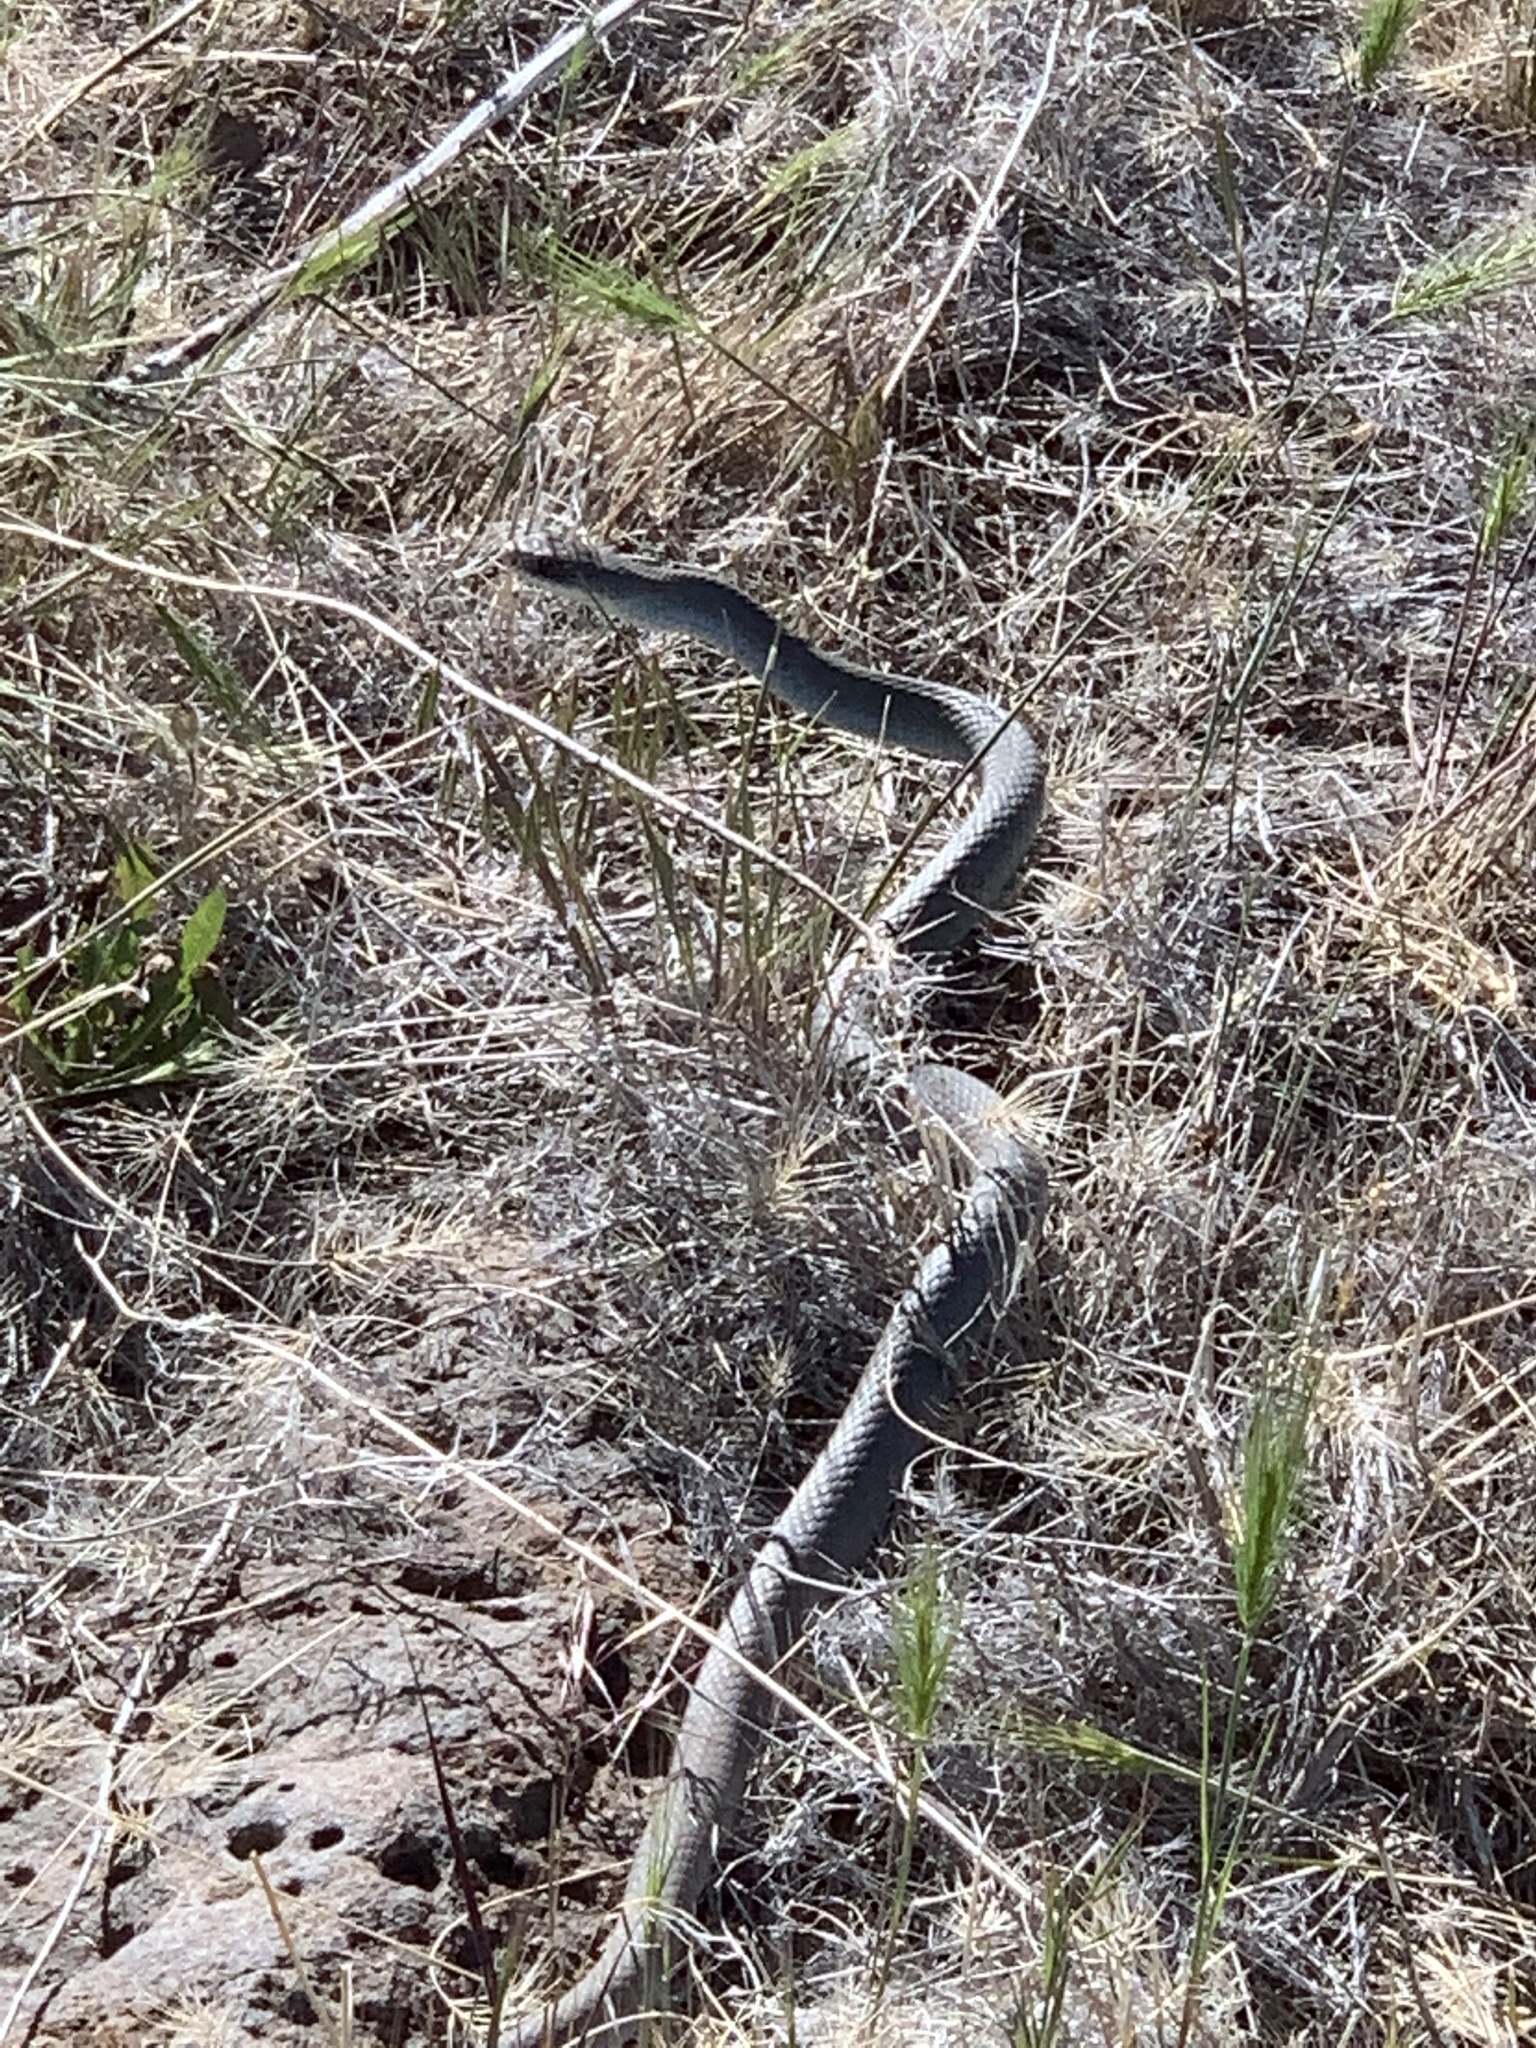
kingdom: Animalia
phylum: Chordata
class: Squamata
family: Colubridae
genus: Coluber
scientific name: Coluber constrictor
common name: Eastern racer
